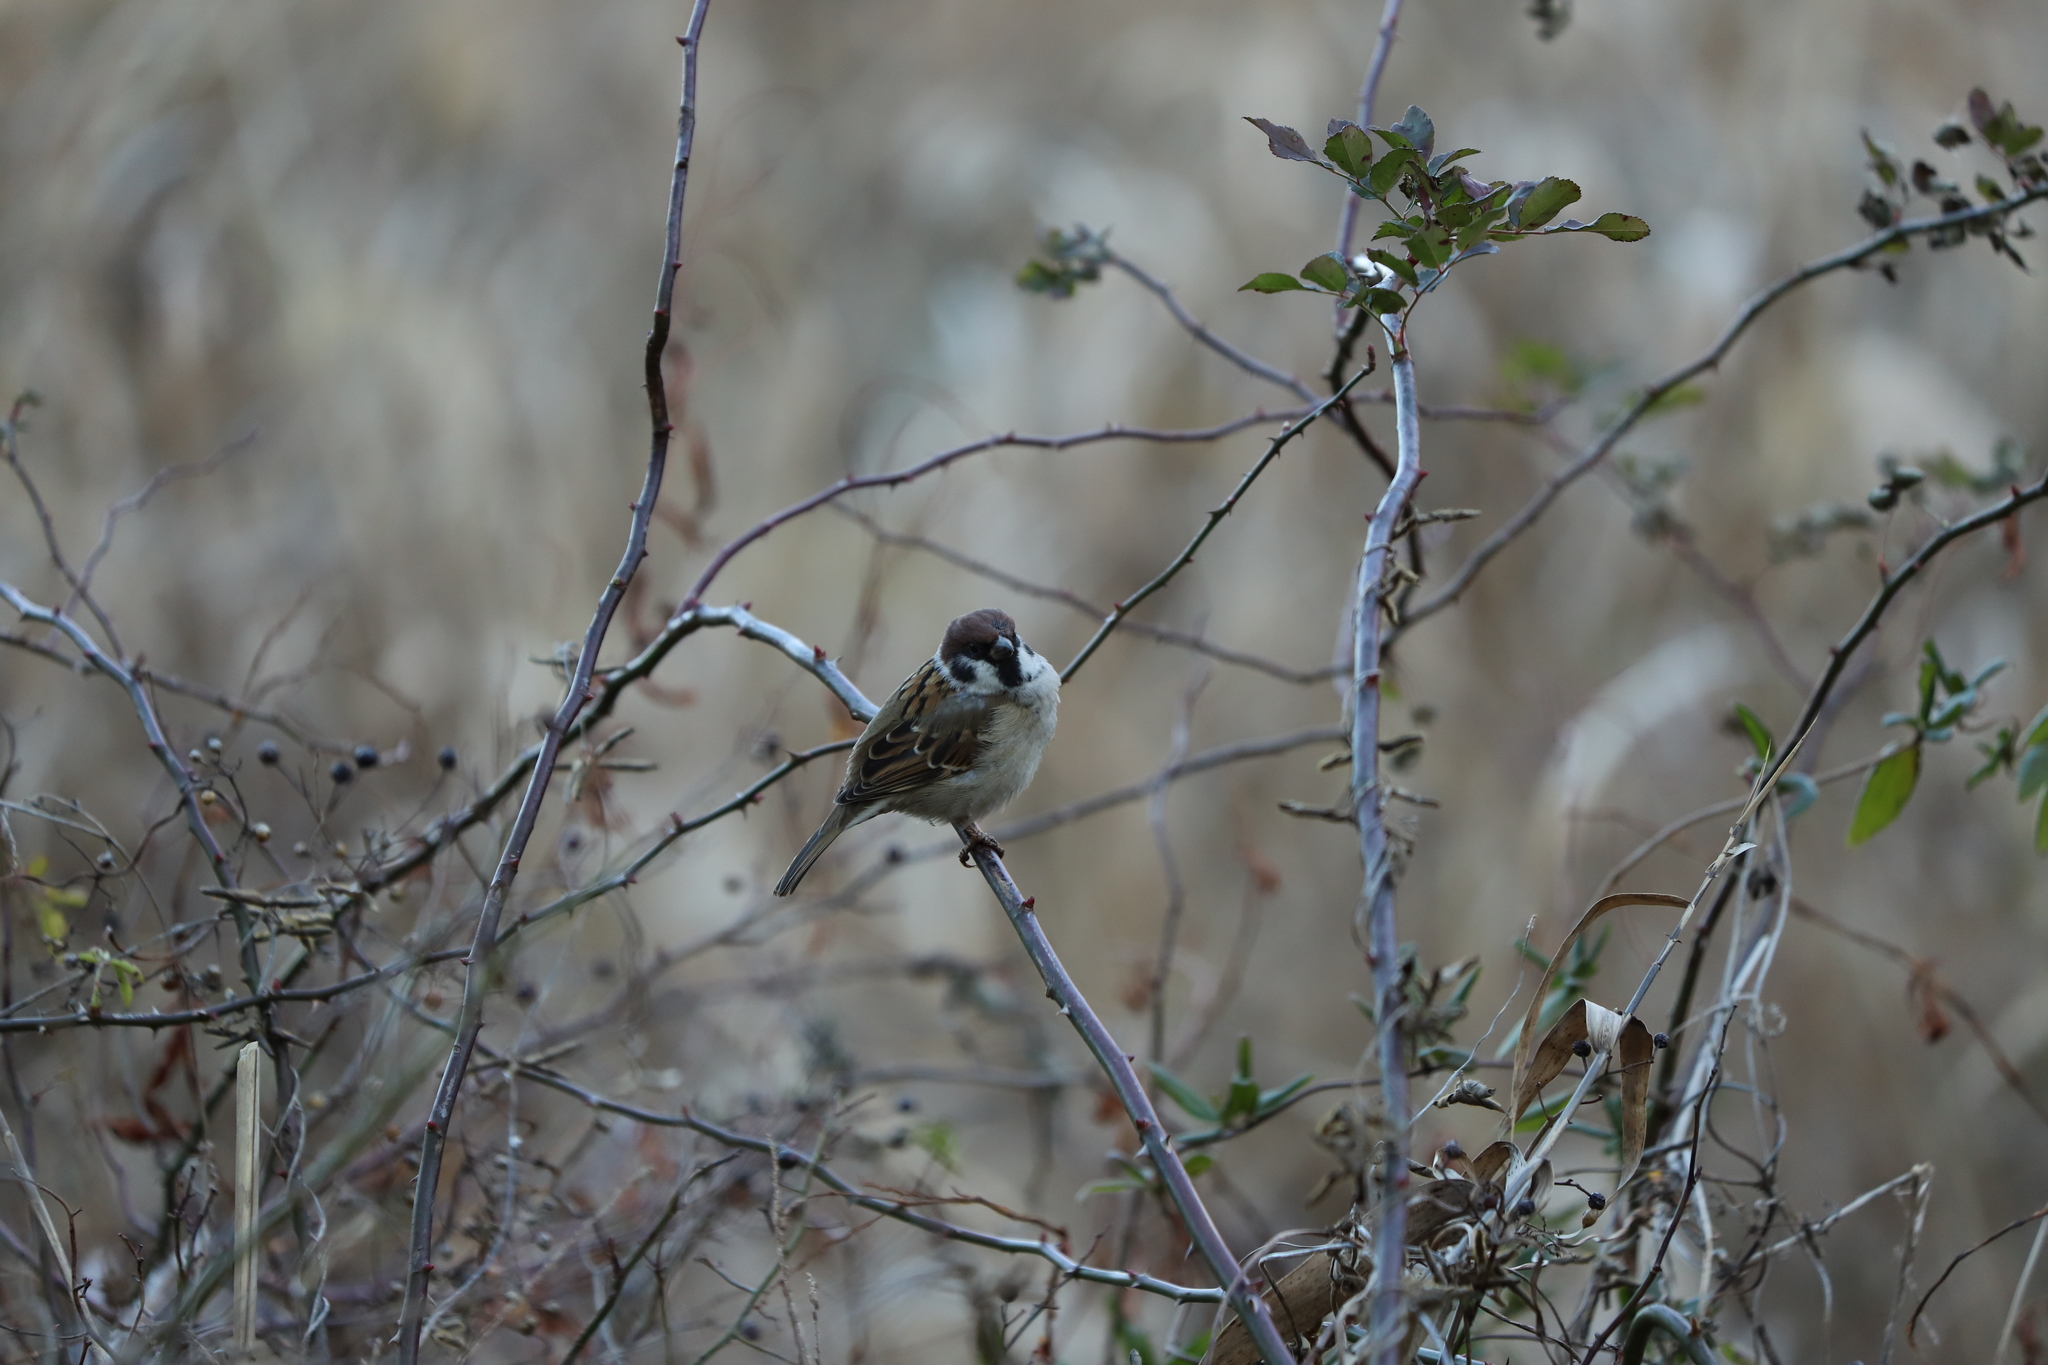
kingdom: Animalia
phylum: Chordata
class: Aves
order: Passeriformes
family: Passeridae
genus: Passer
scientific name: Passer montanus
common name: Eurasian tree sparrow
